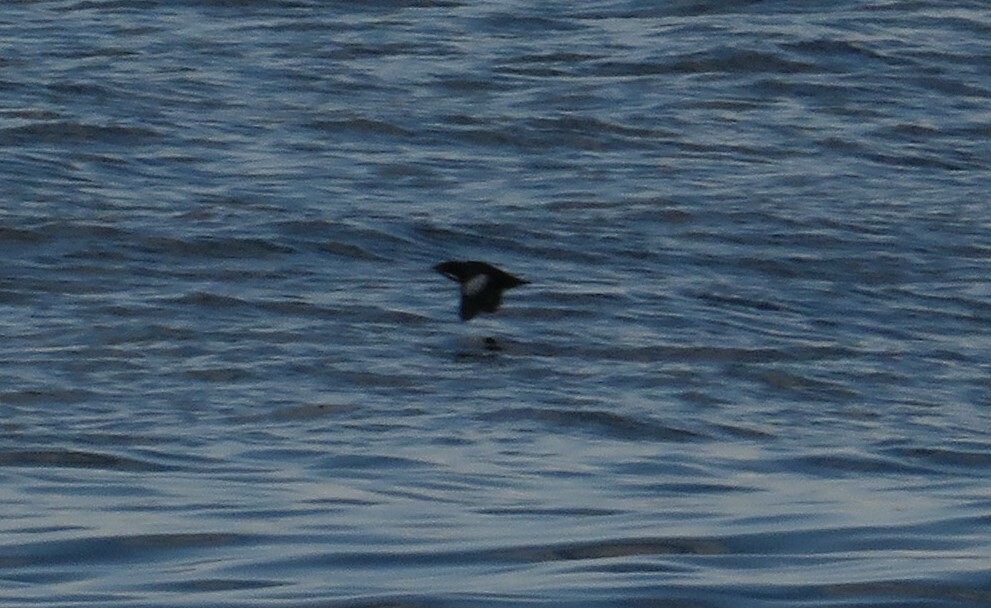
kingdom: Animalia
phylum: Chordata
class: Aves
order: Charadriiformes
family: Alcidae
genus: Cepphus
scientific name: Cepphus grylle
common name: Black guillemot
